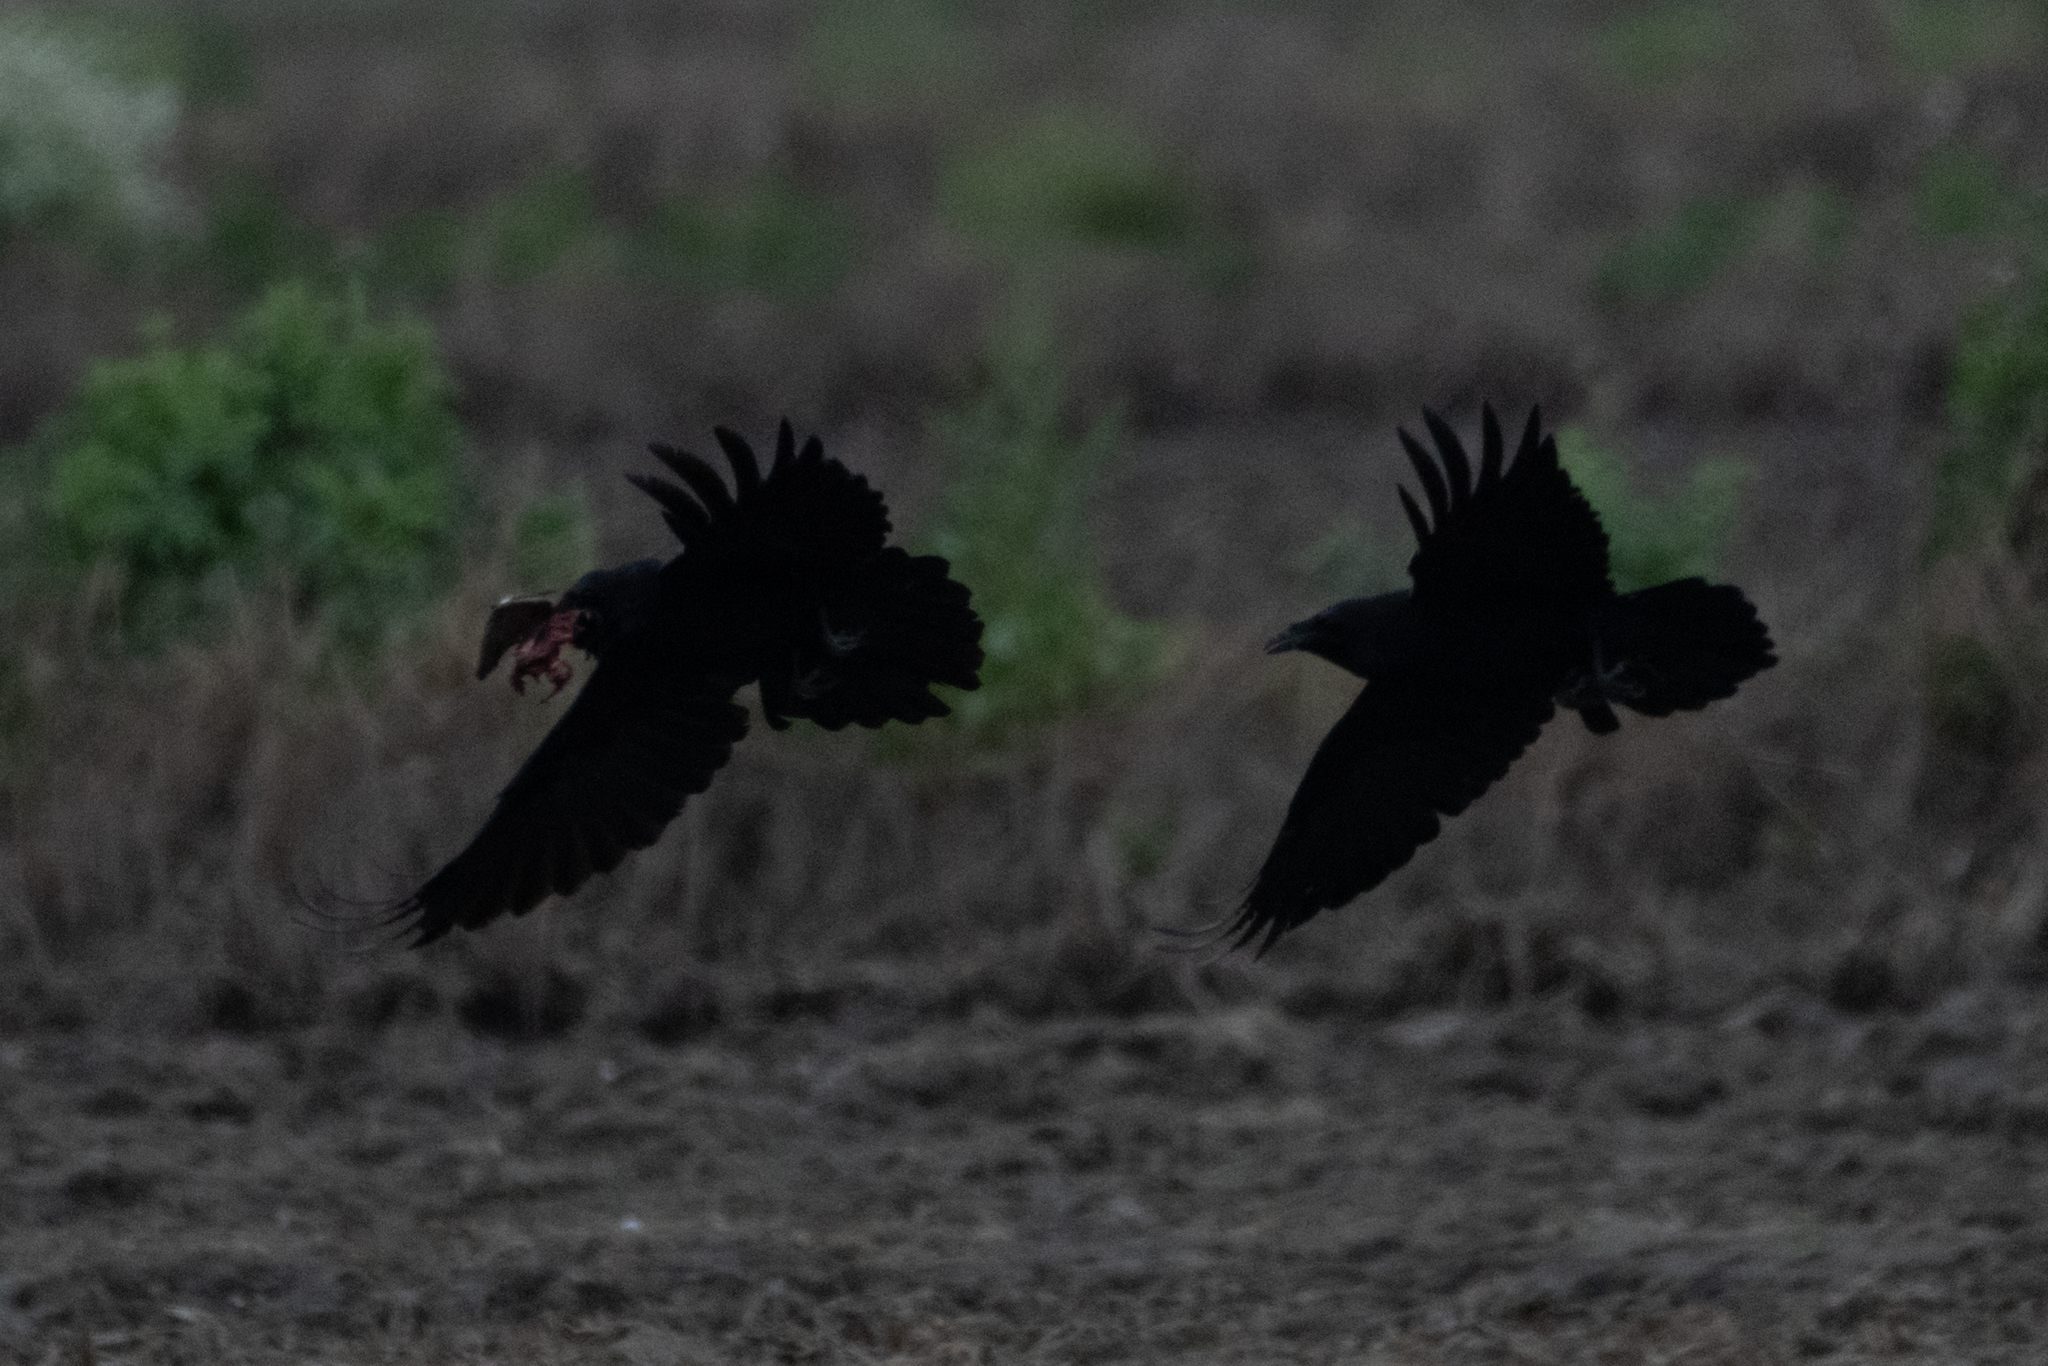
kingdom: Animalia
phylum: Chordata
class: Aves
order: Passeriformes
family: Corvidae
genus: Corvus
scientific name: Corvus corax
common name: Common raven
